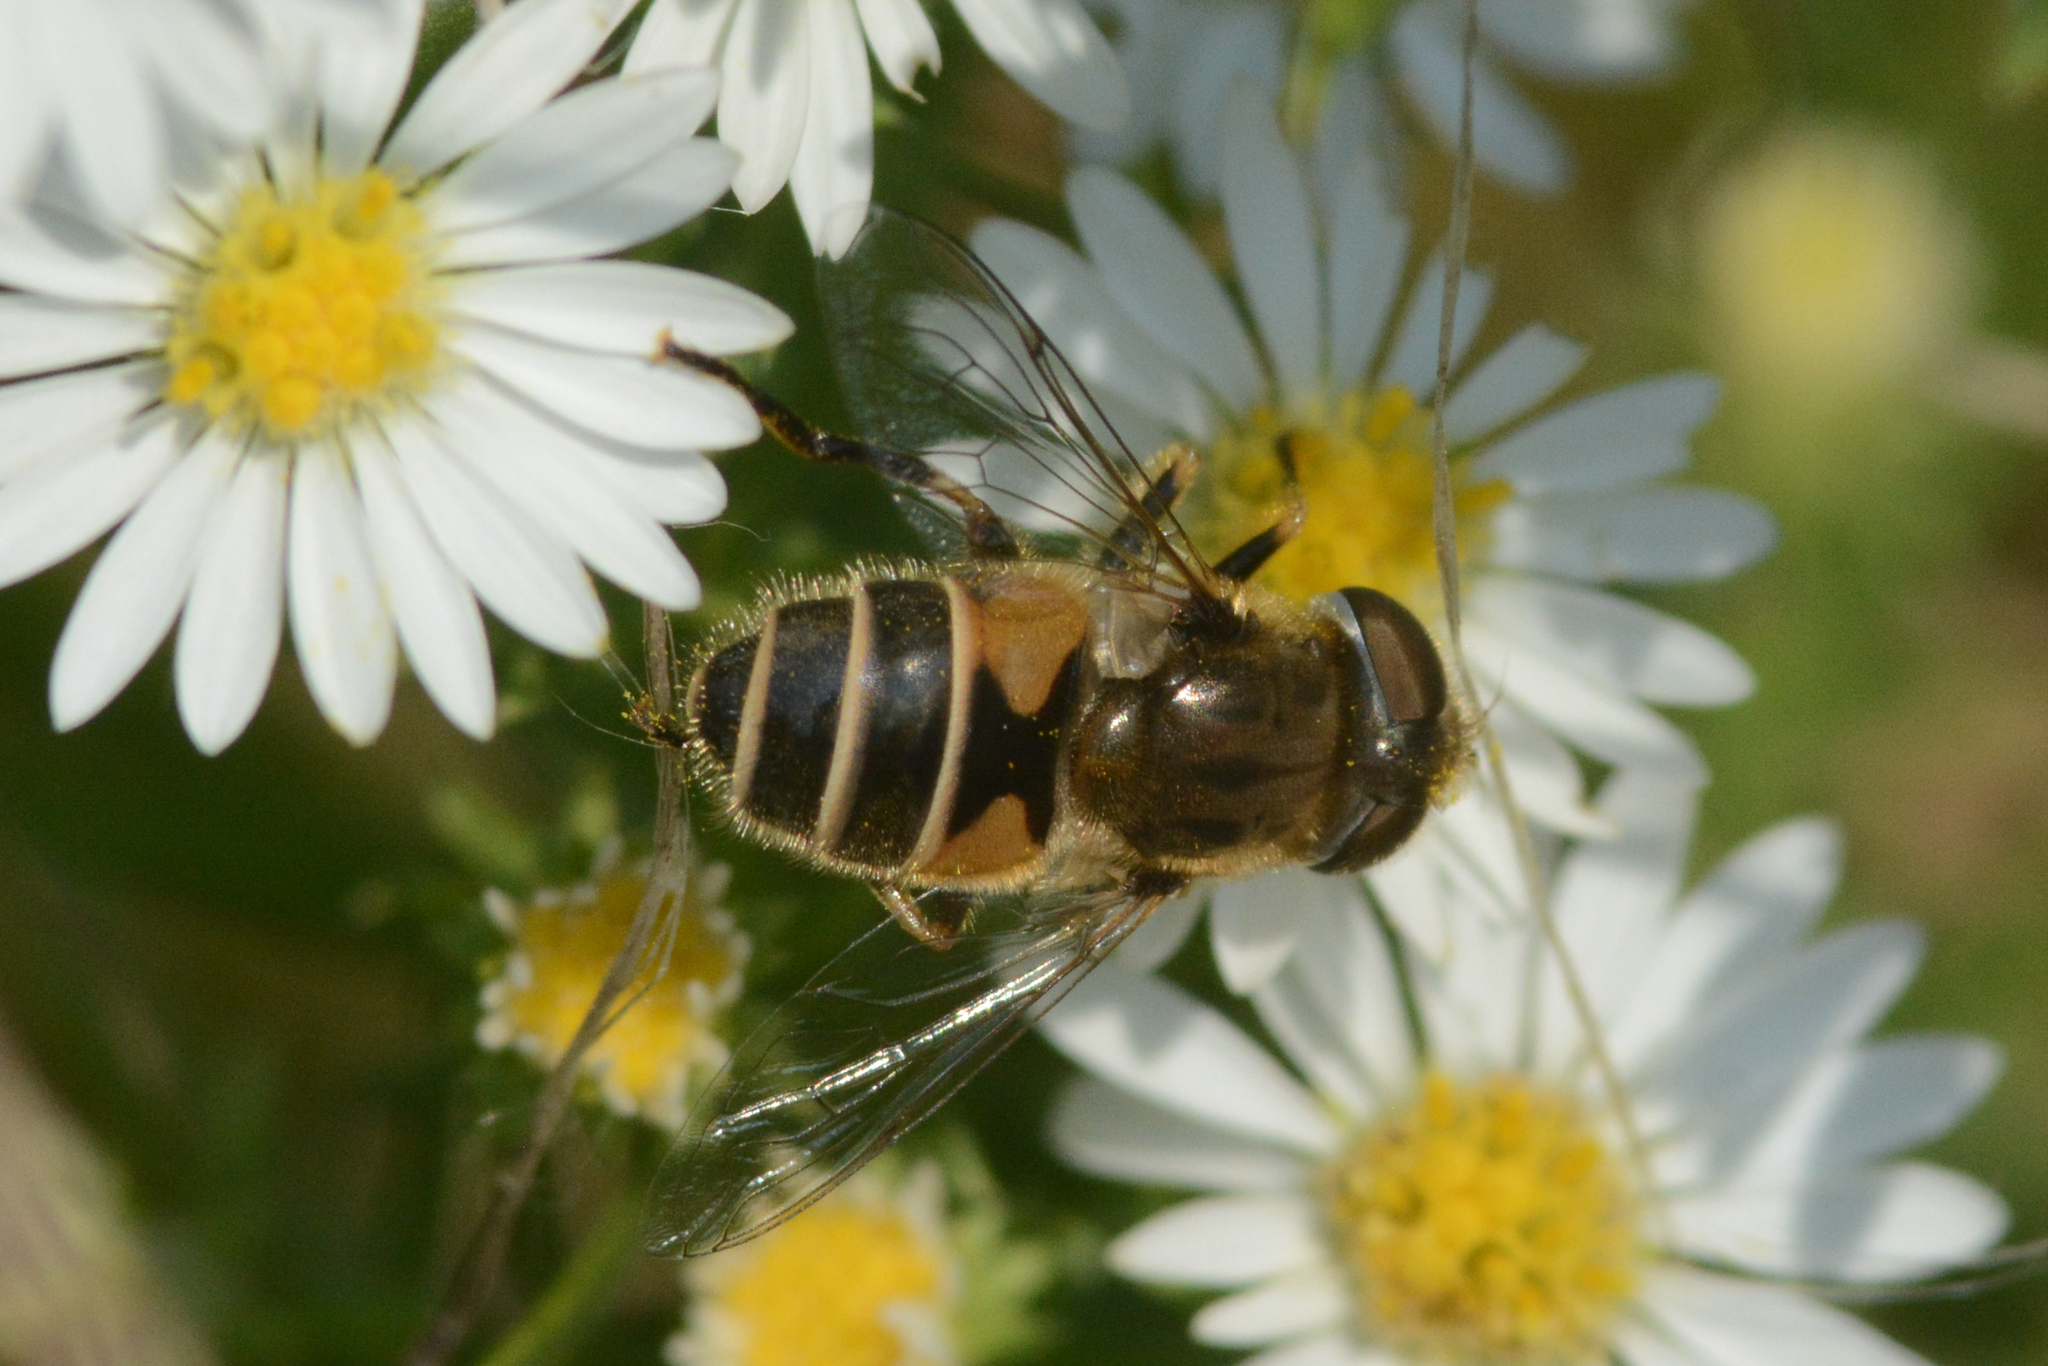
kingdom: Animalia
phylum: Arthropoda
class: Insecta
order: Diptera
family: Syrphidae
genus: Eristalis
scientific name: Eristalis arbustorum
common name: Hover fly
